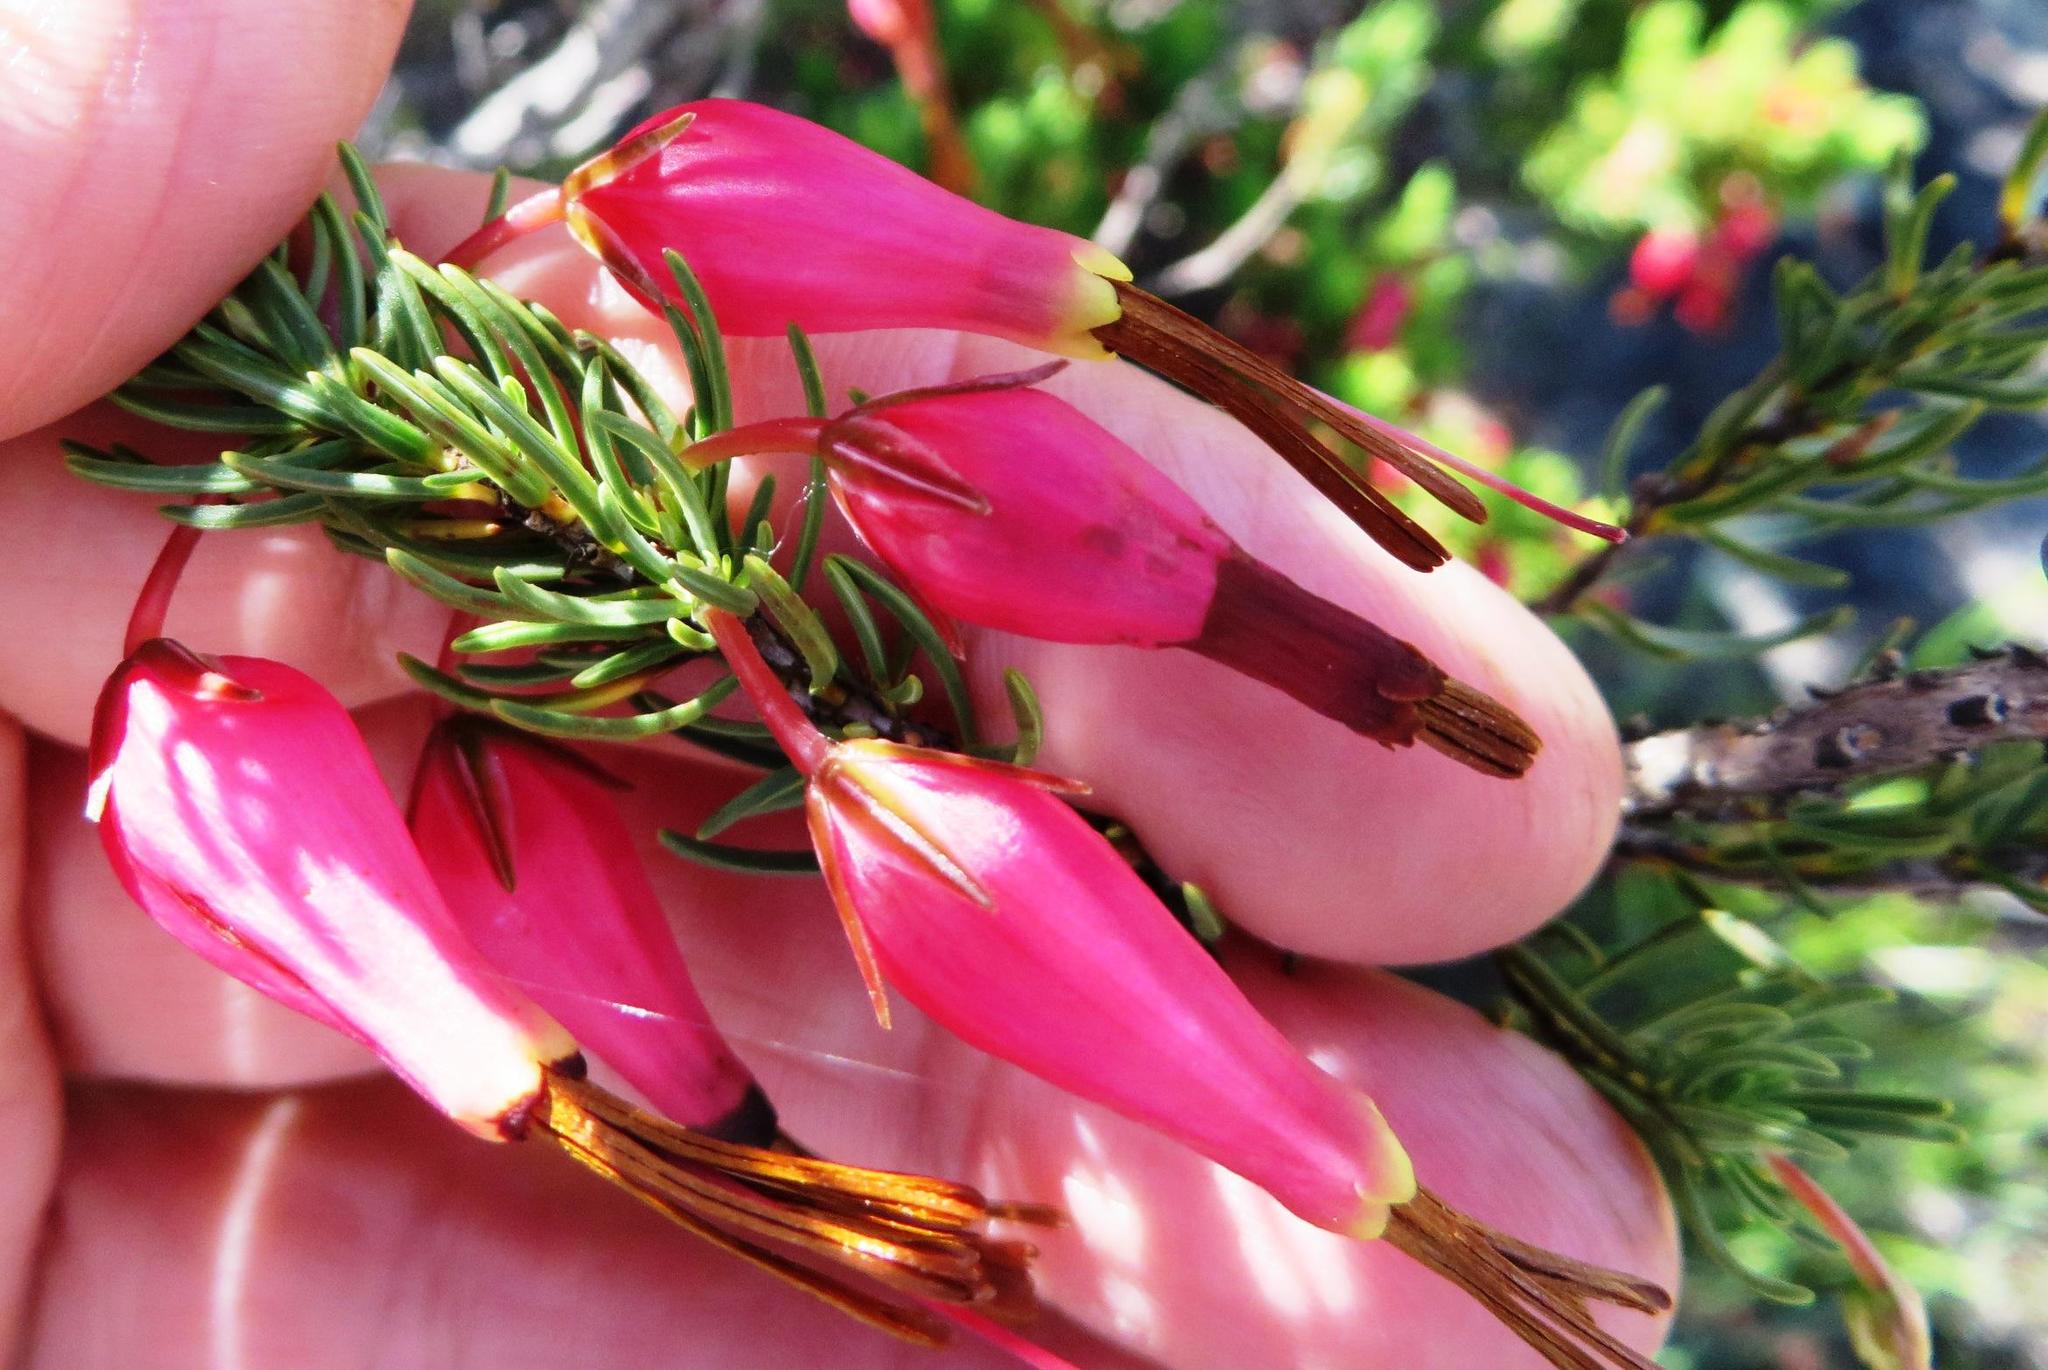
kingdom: Plantae
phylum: Tracheophyta
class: Magnoliopsida
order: Ericales
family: Ericaceae
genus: Erica
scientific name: Erica plukenetii
